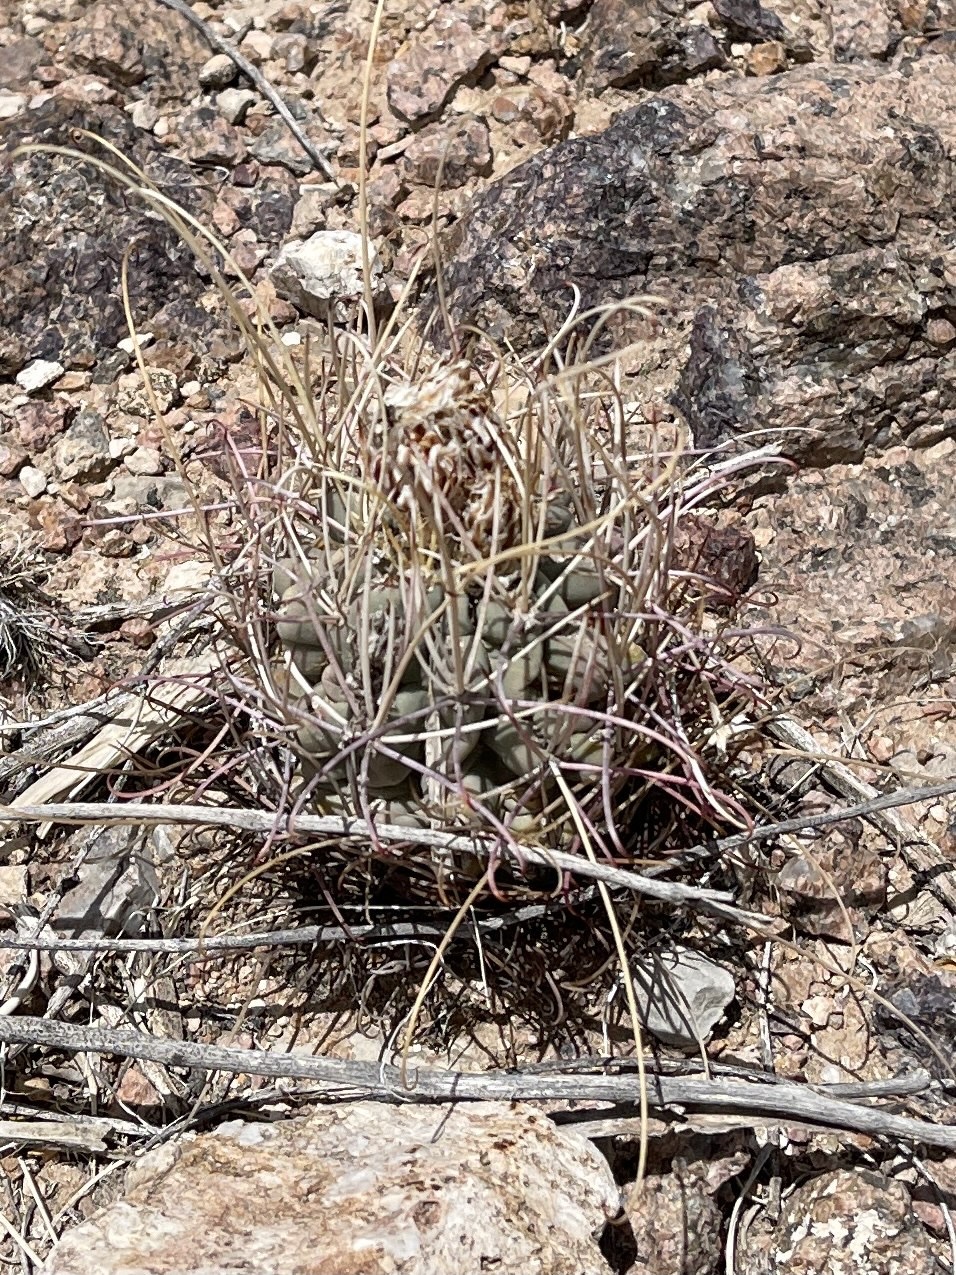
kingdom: Plantae
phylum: Tracheophyta
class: Magnoliopsida
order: Caryophyllales
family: Cactaceae
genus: Ferocactus
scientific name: Ferocactus uncinatus
